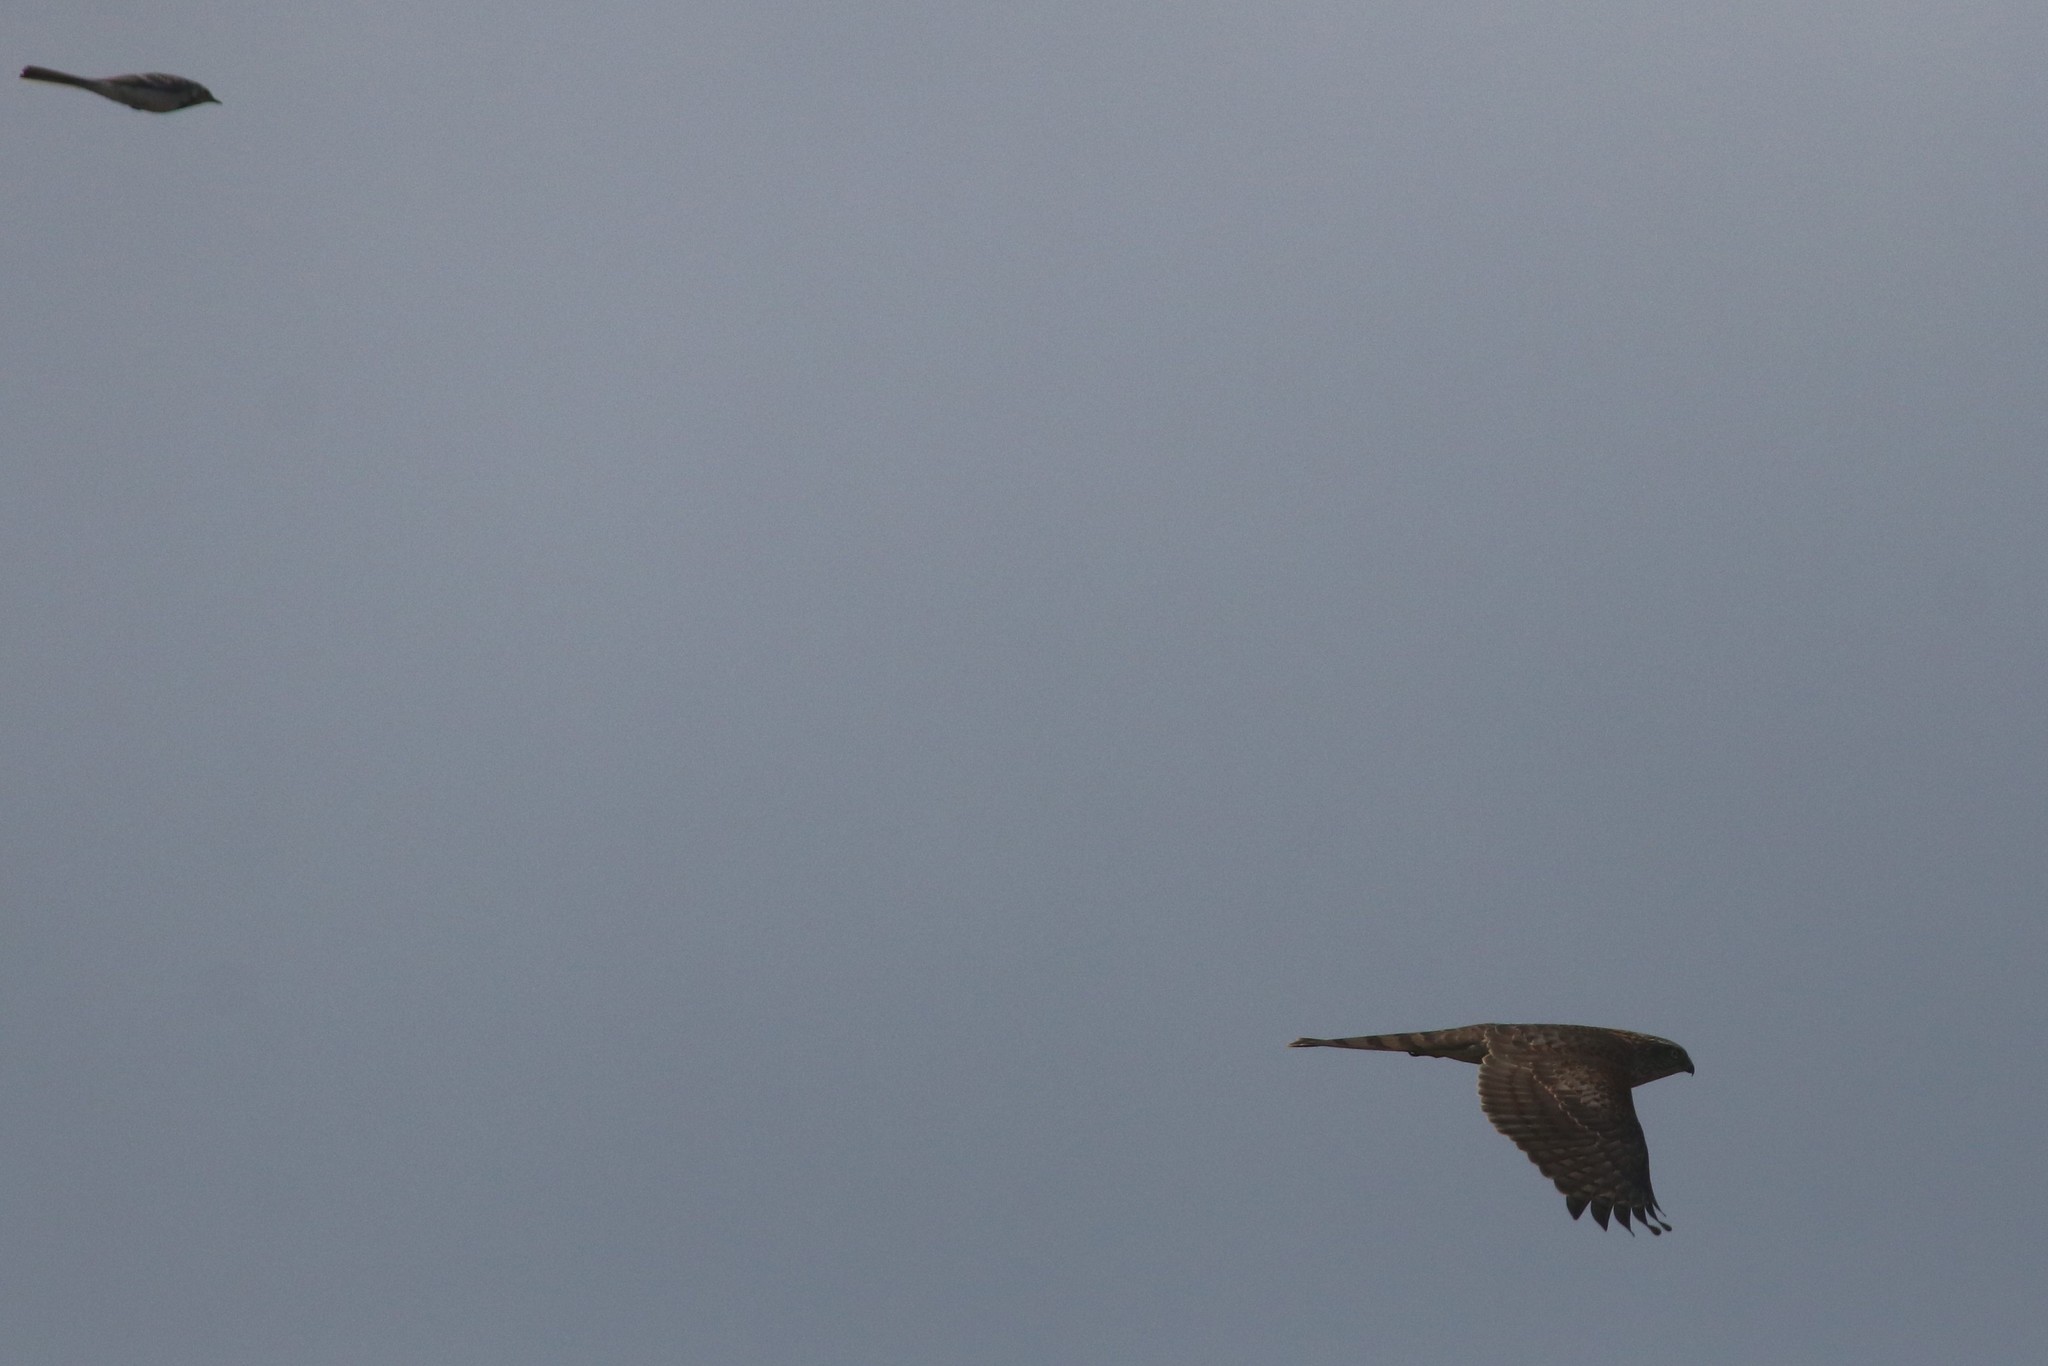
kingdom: Animalia
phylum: Chordata
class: Aves
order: Accipitriformes
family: Accipitridae
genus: Accipiter
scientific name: Accipiter nisus
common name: Eurasian sparrowhawk
